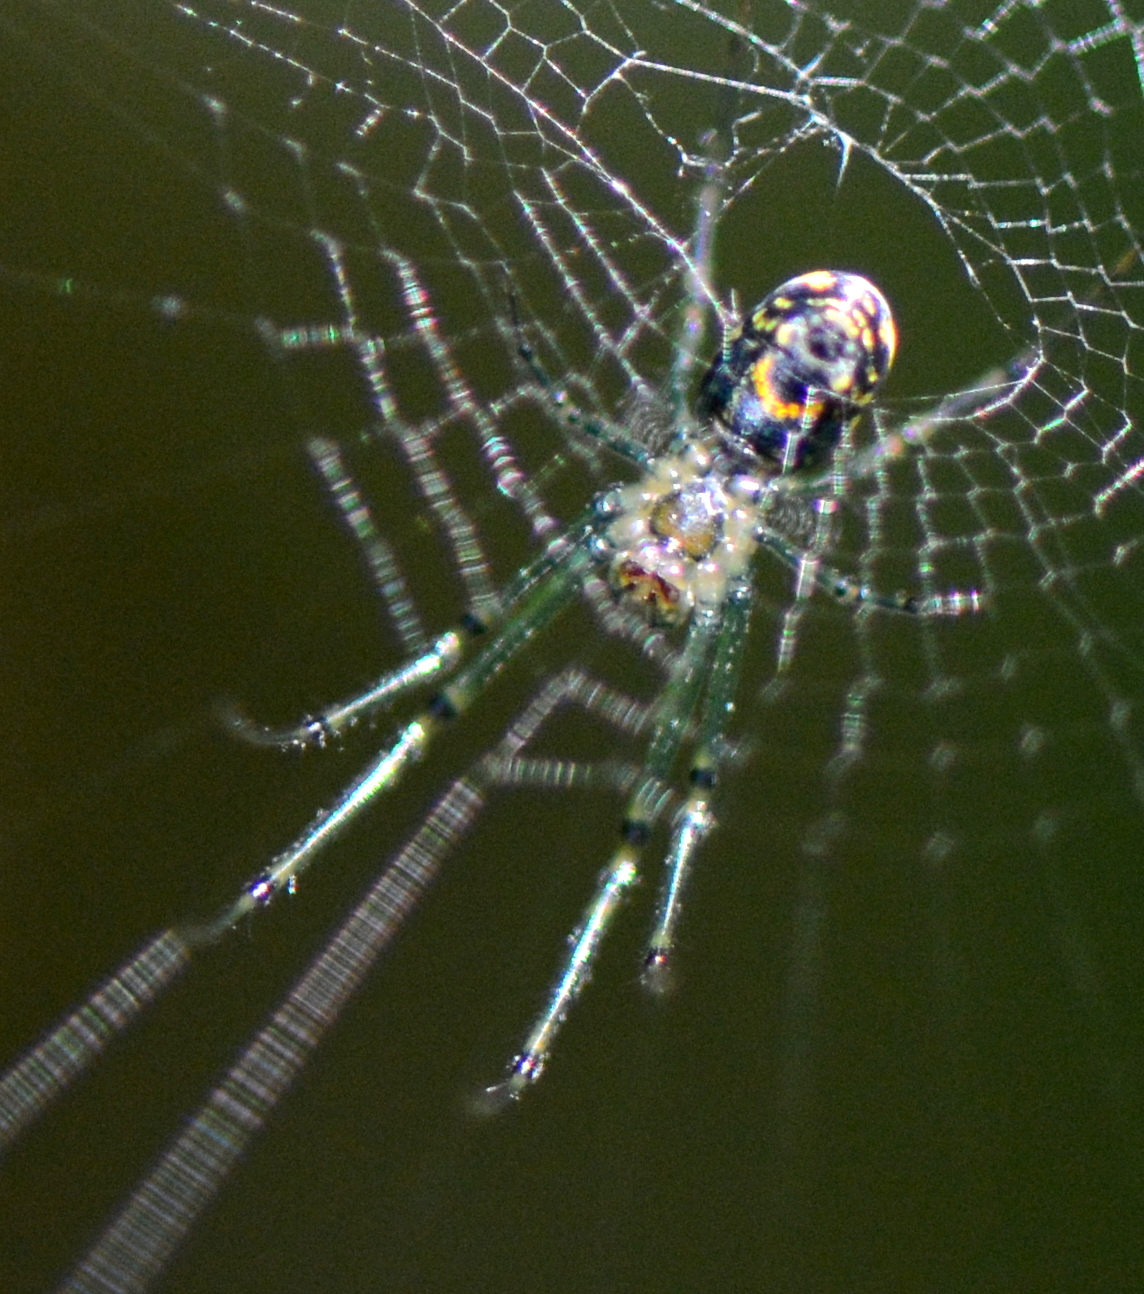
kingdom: Animalia
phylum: Arthropoda
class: Arachnida
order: Araneae
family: Tetragnathidae
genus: Leucauge
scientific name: Leucauge venusta
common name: Longjawed orb weavers
